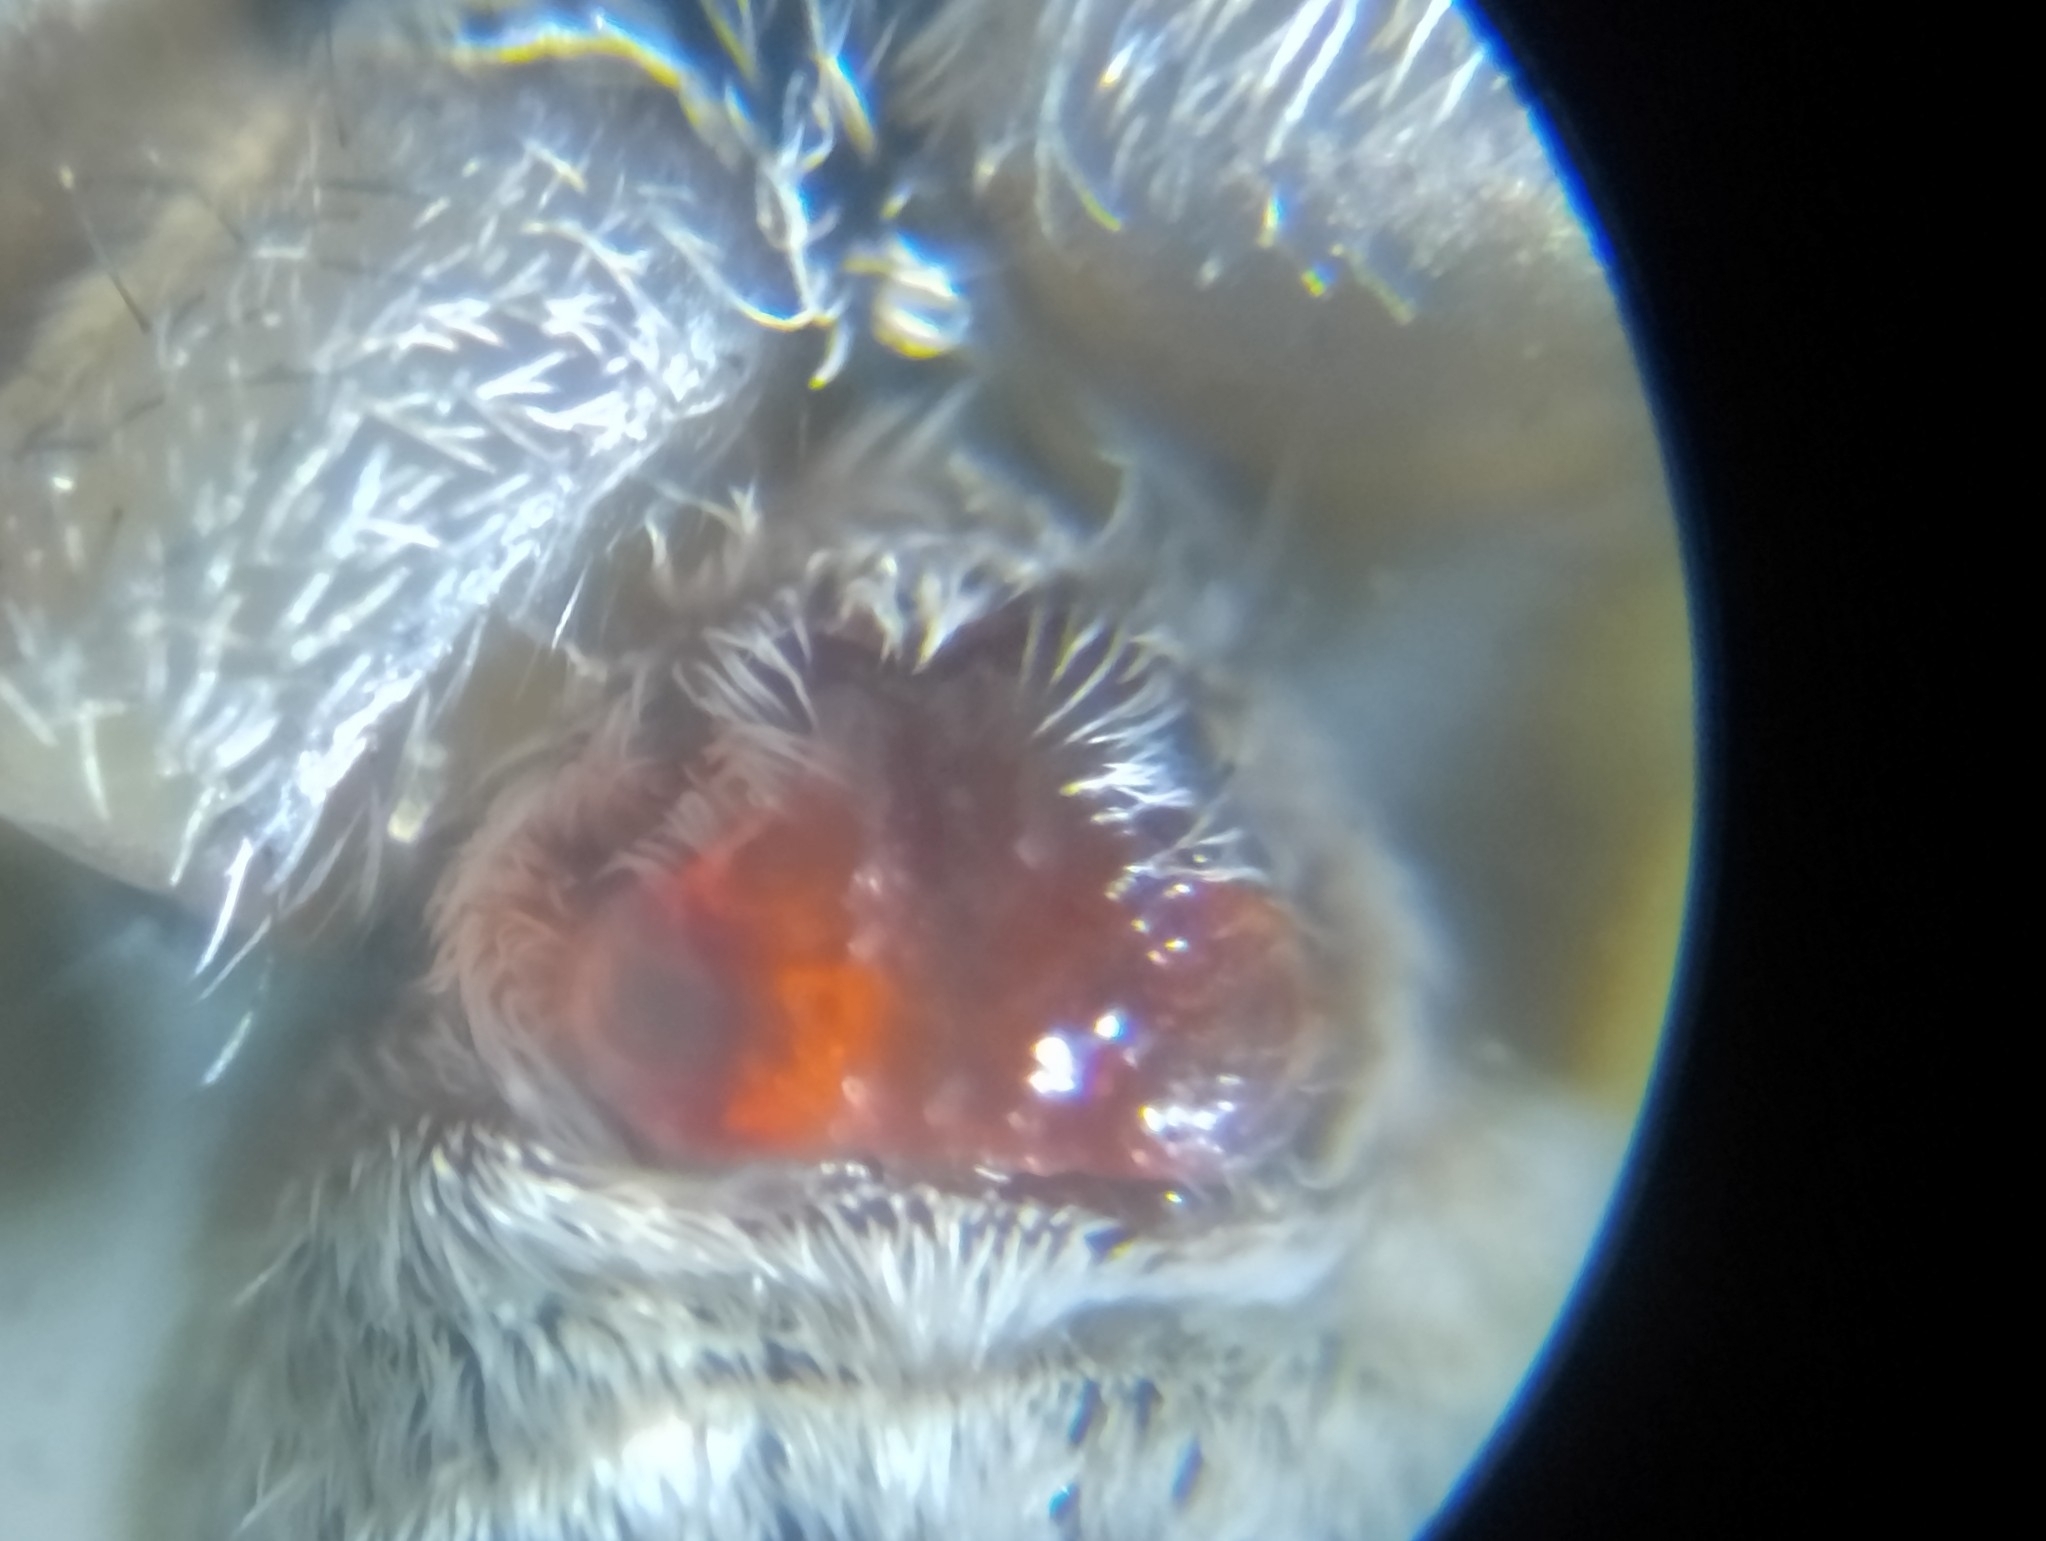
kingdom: Animalia
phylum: Arthropoda
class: Arachnida
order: Araneae
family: Lycosidae
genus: Pardosa
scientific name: Pardosa palustris
